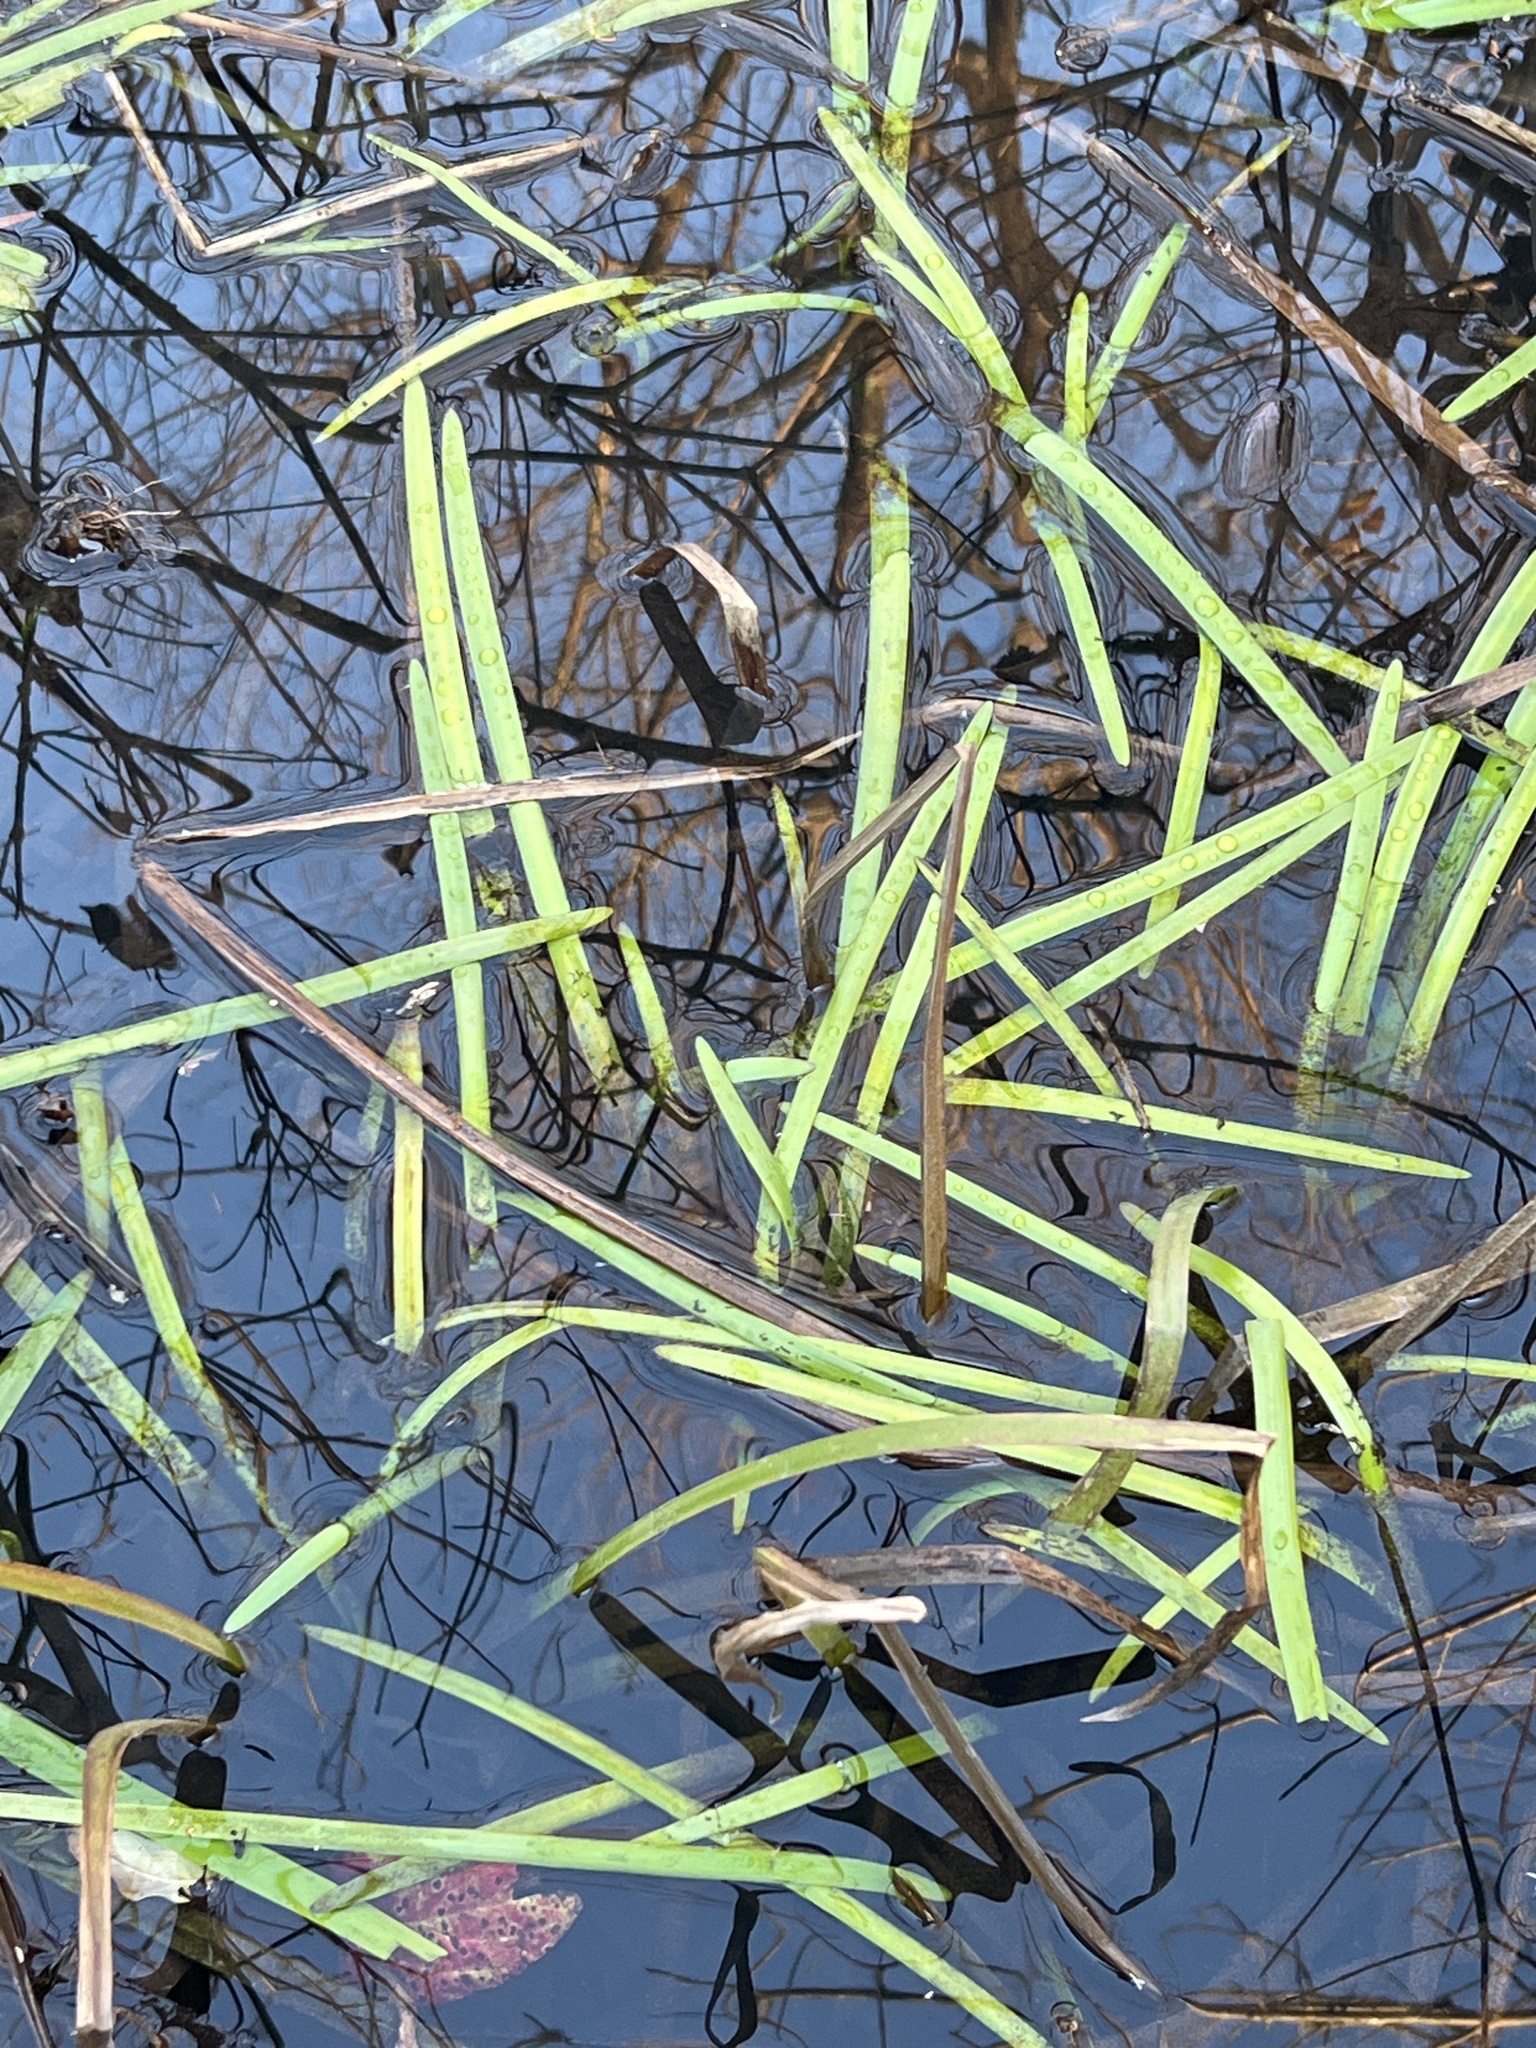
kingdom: Plantae
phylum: Tracheophyta
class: Liliopsida
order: Poales
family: Typhaceae
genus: Sparganium
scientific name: Sparganium americanum
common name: American burreed
